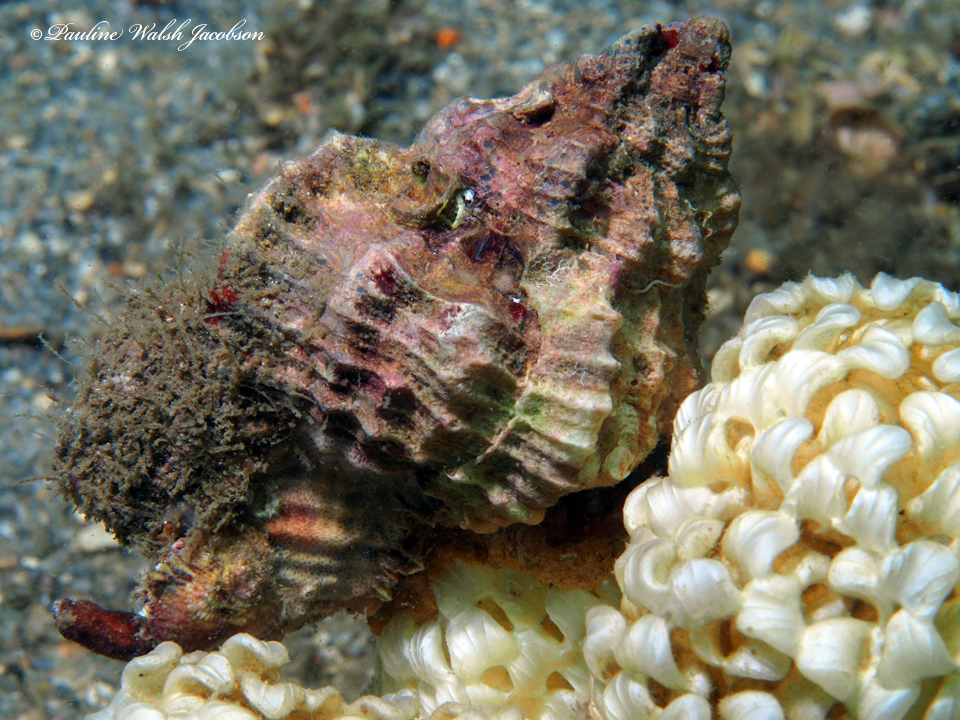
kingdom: Animalia
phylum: Mollusca
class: Gastropoda
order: Neogastropoda
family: Muricidae
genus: Phyllonotus
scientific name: Phyllonotus pomum
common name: Apple murex
